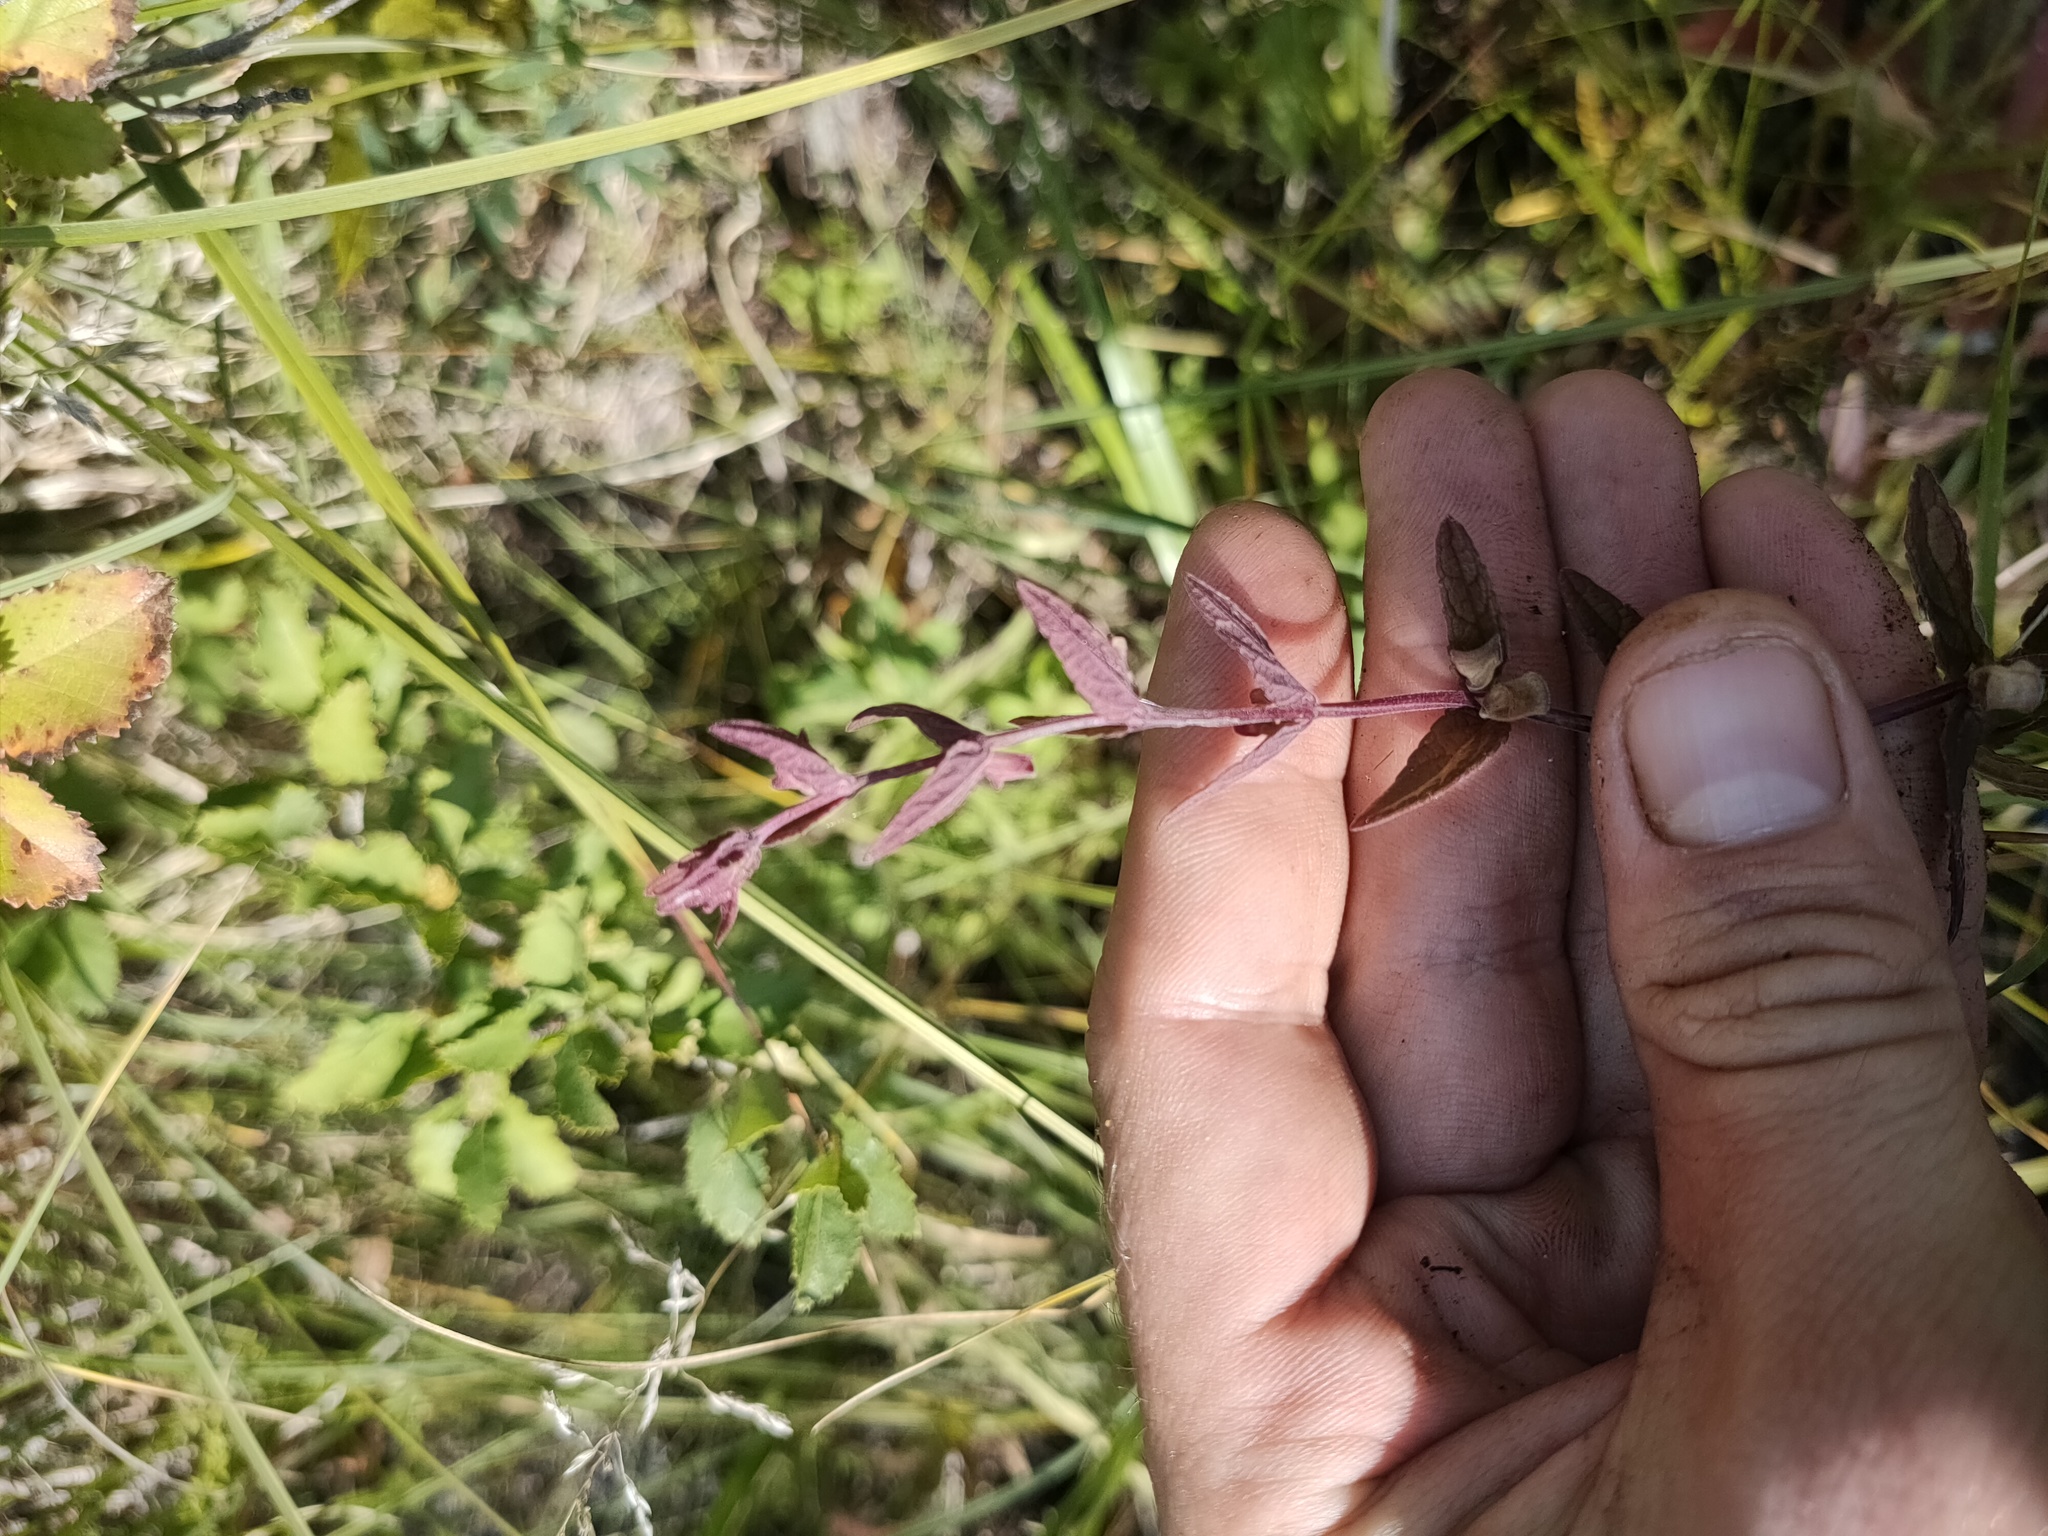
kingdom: Plantae
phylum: Tracheophyta
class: Magnoliopsida
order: Lamiales
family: Lamiaceae
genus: Scutellaria
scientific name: Scutellaria galericulata
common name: Skullcap
